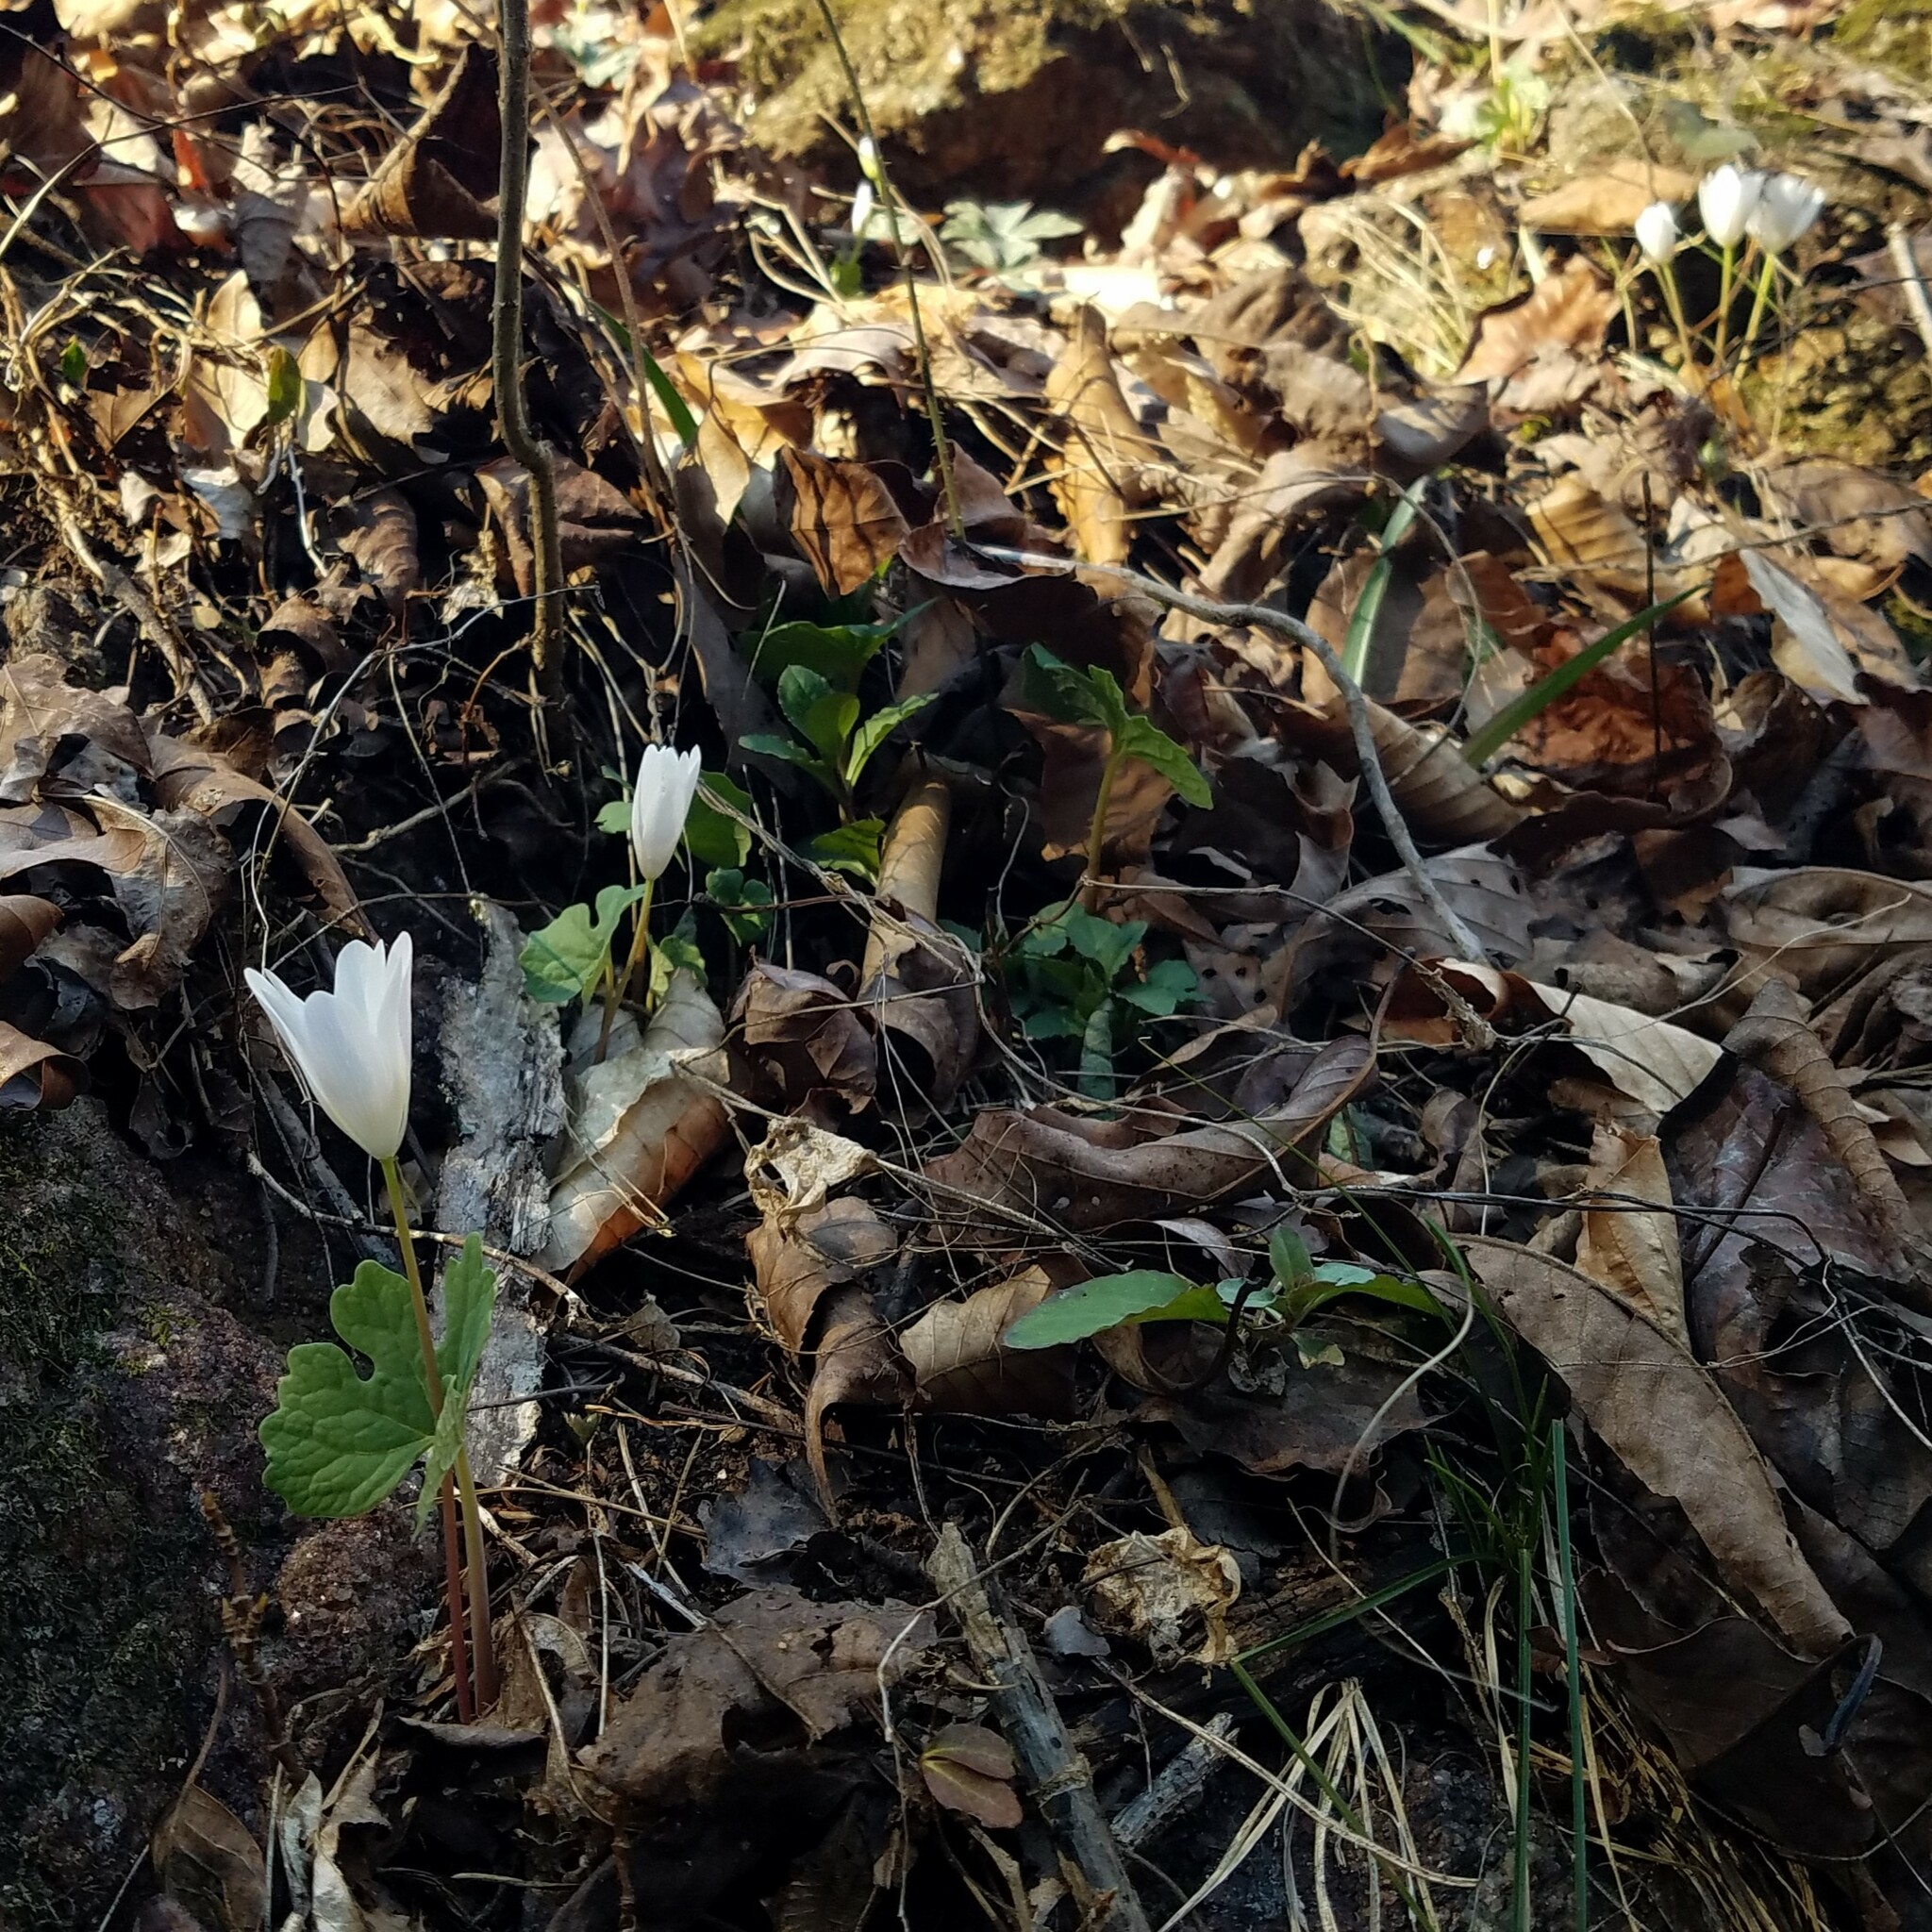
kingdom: Plantae
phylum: Tracheophyta
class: Magnoliopsida
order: Ranunculales
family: Papaveraceae
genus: Sanguinaria
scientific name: Sanguinaria canadensis
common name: Bloodroot
